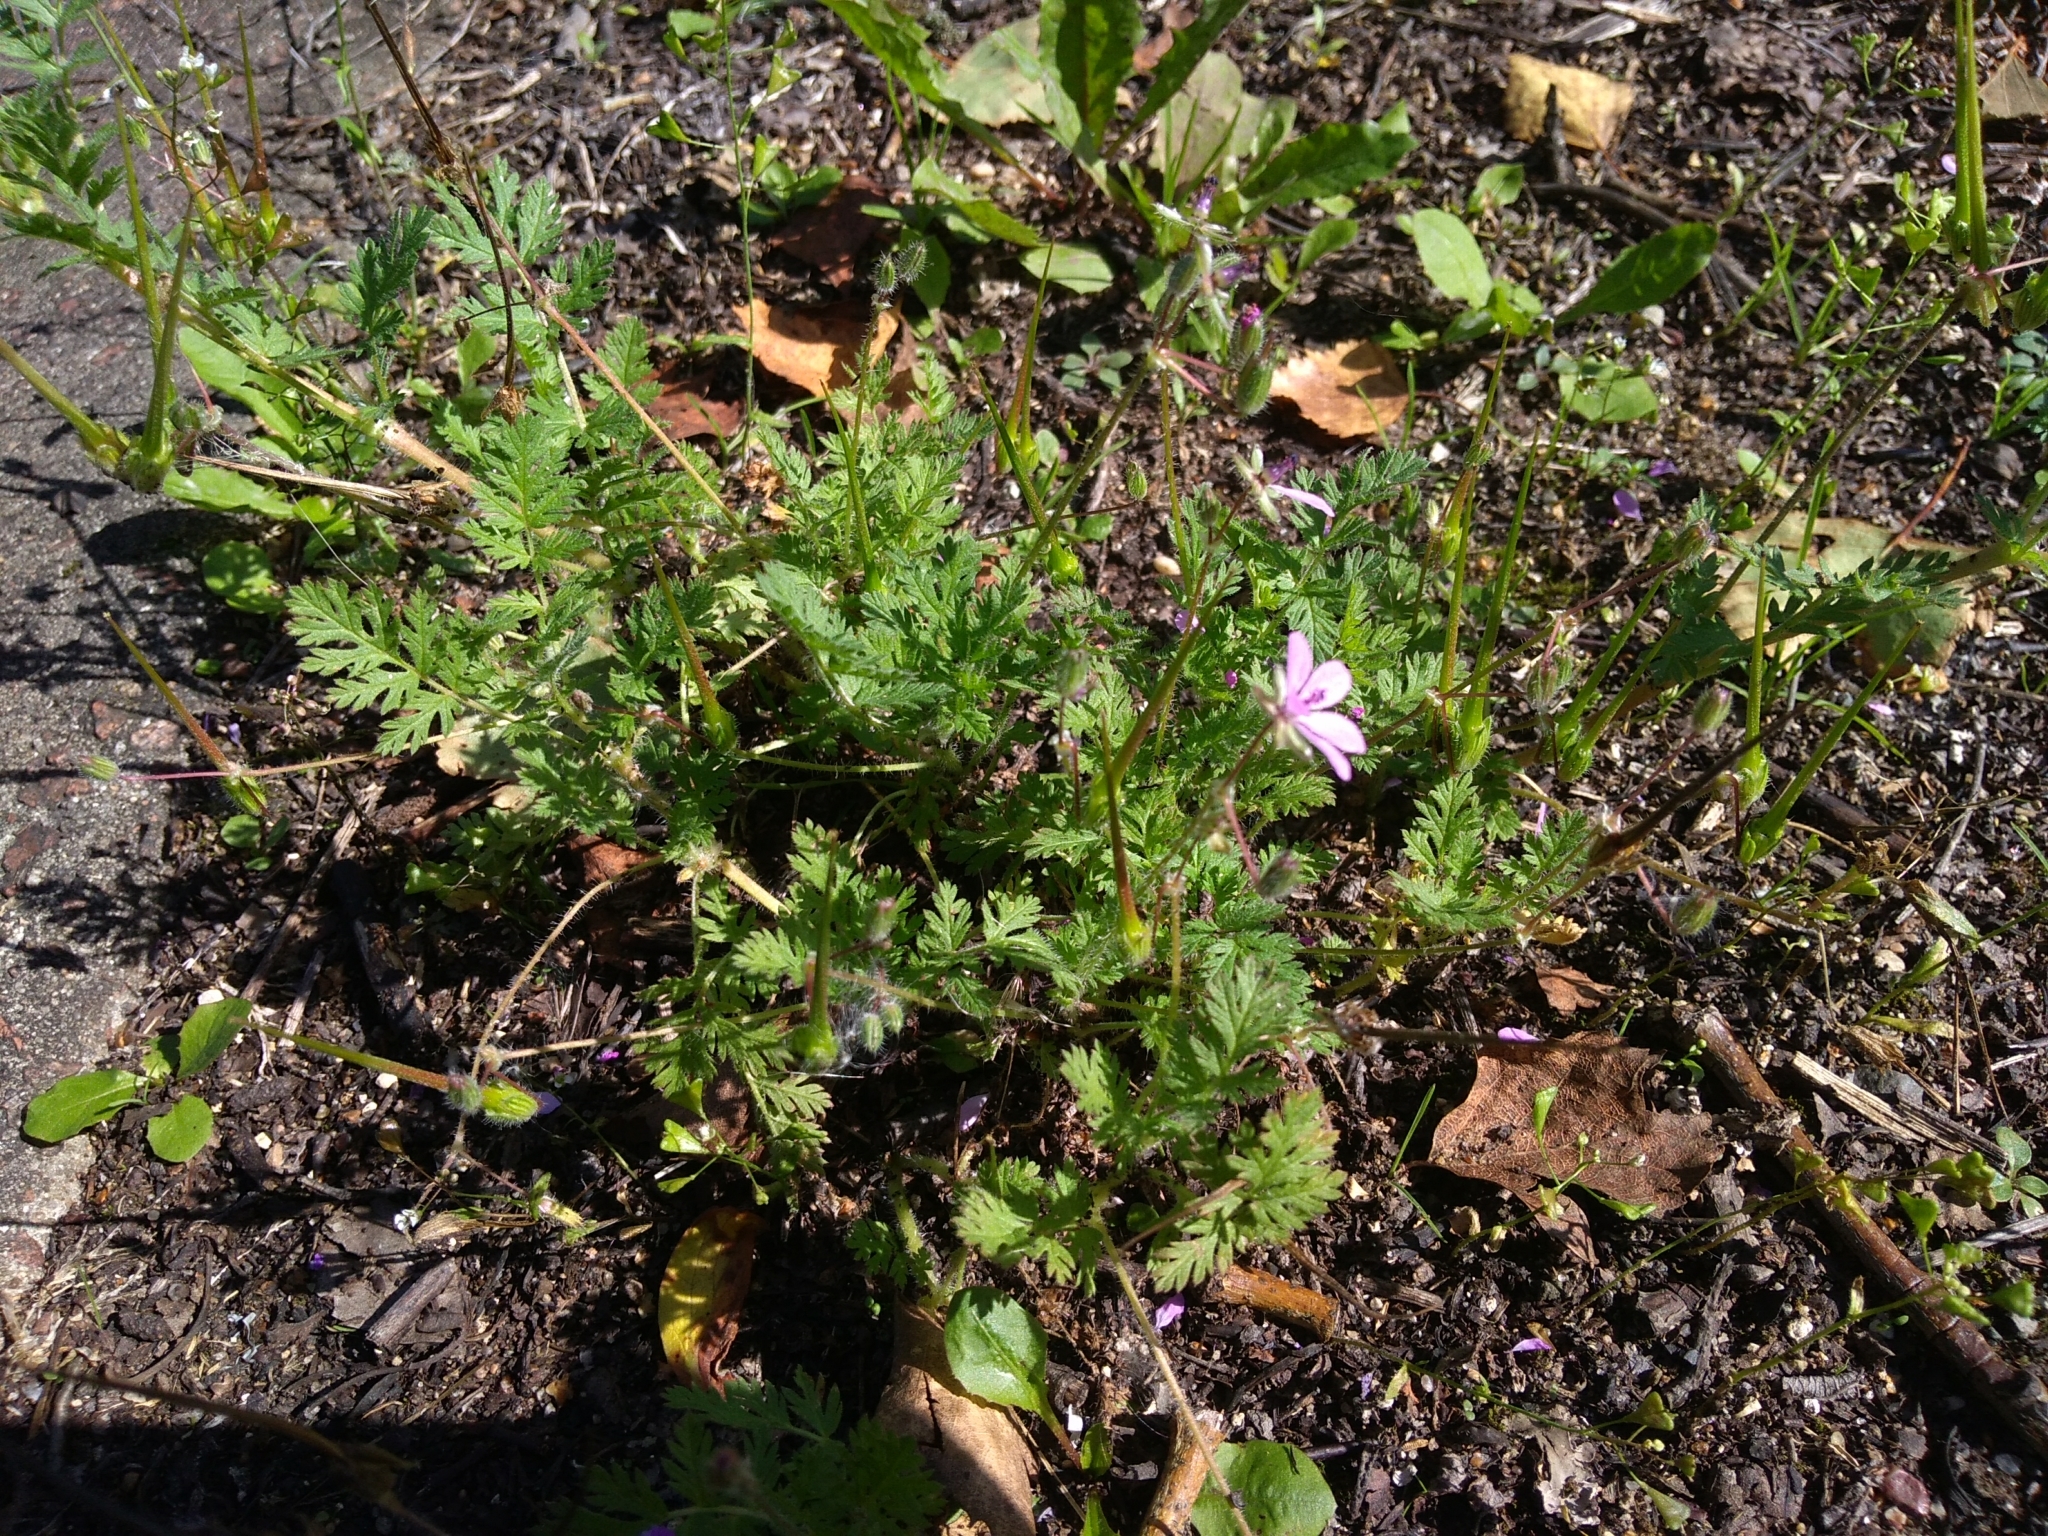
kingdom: Plantae
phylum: Tracheophyta
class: Magnoliopsida
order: Geraniales
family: Geraniaceae
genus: Erodium
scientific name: Erodium cicutarium
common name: Common stork's-bill
